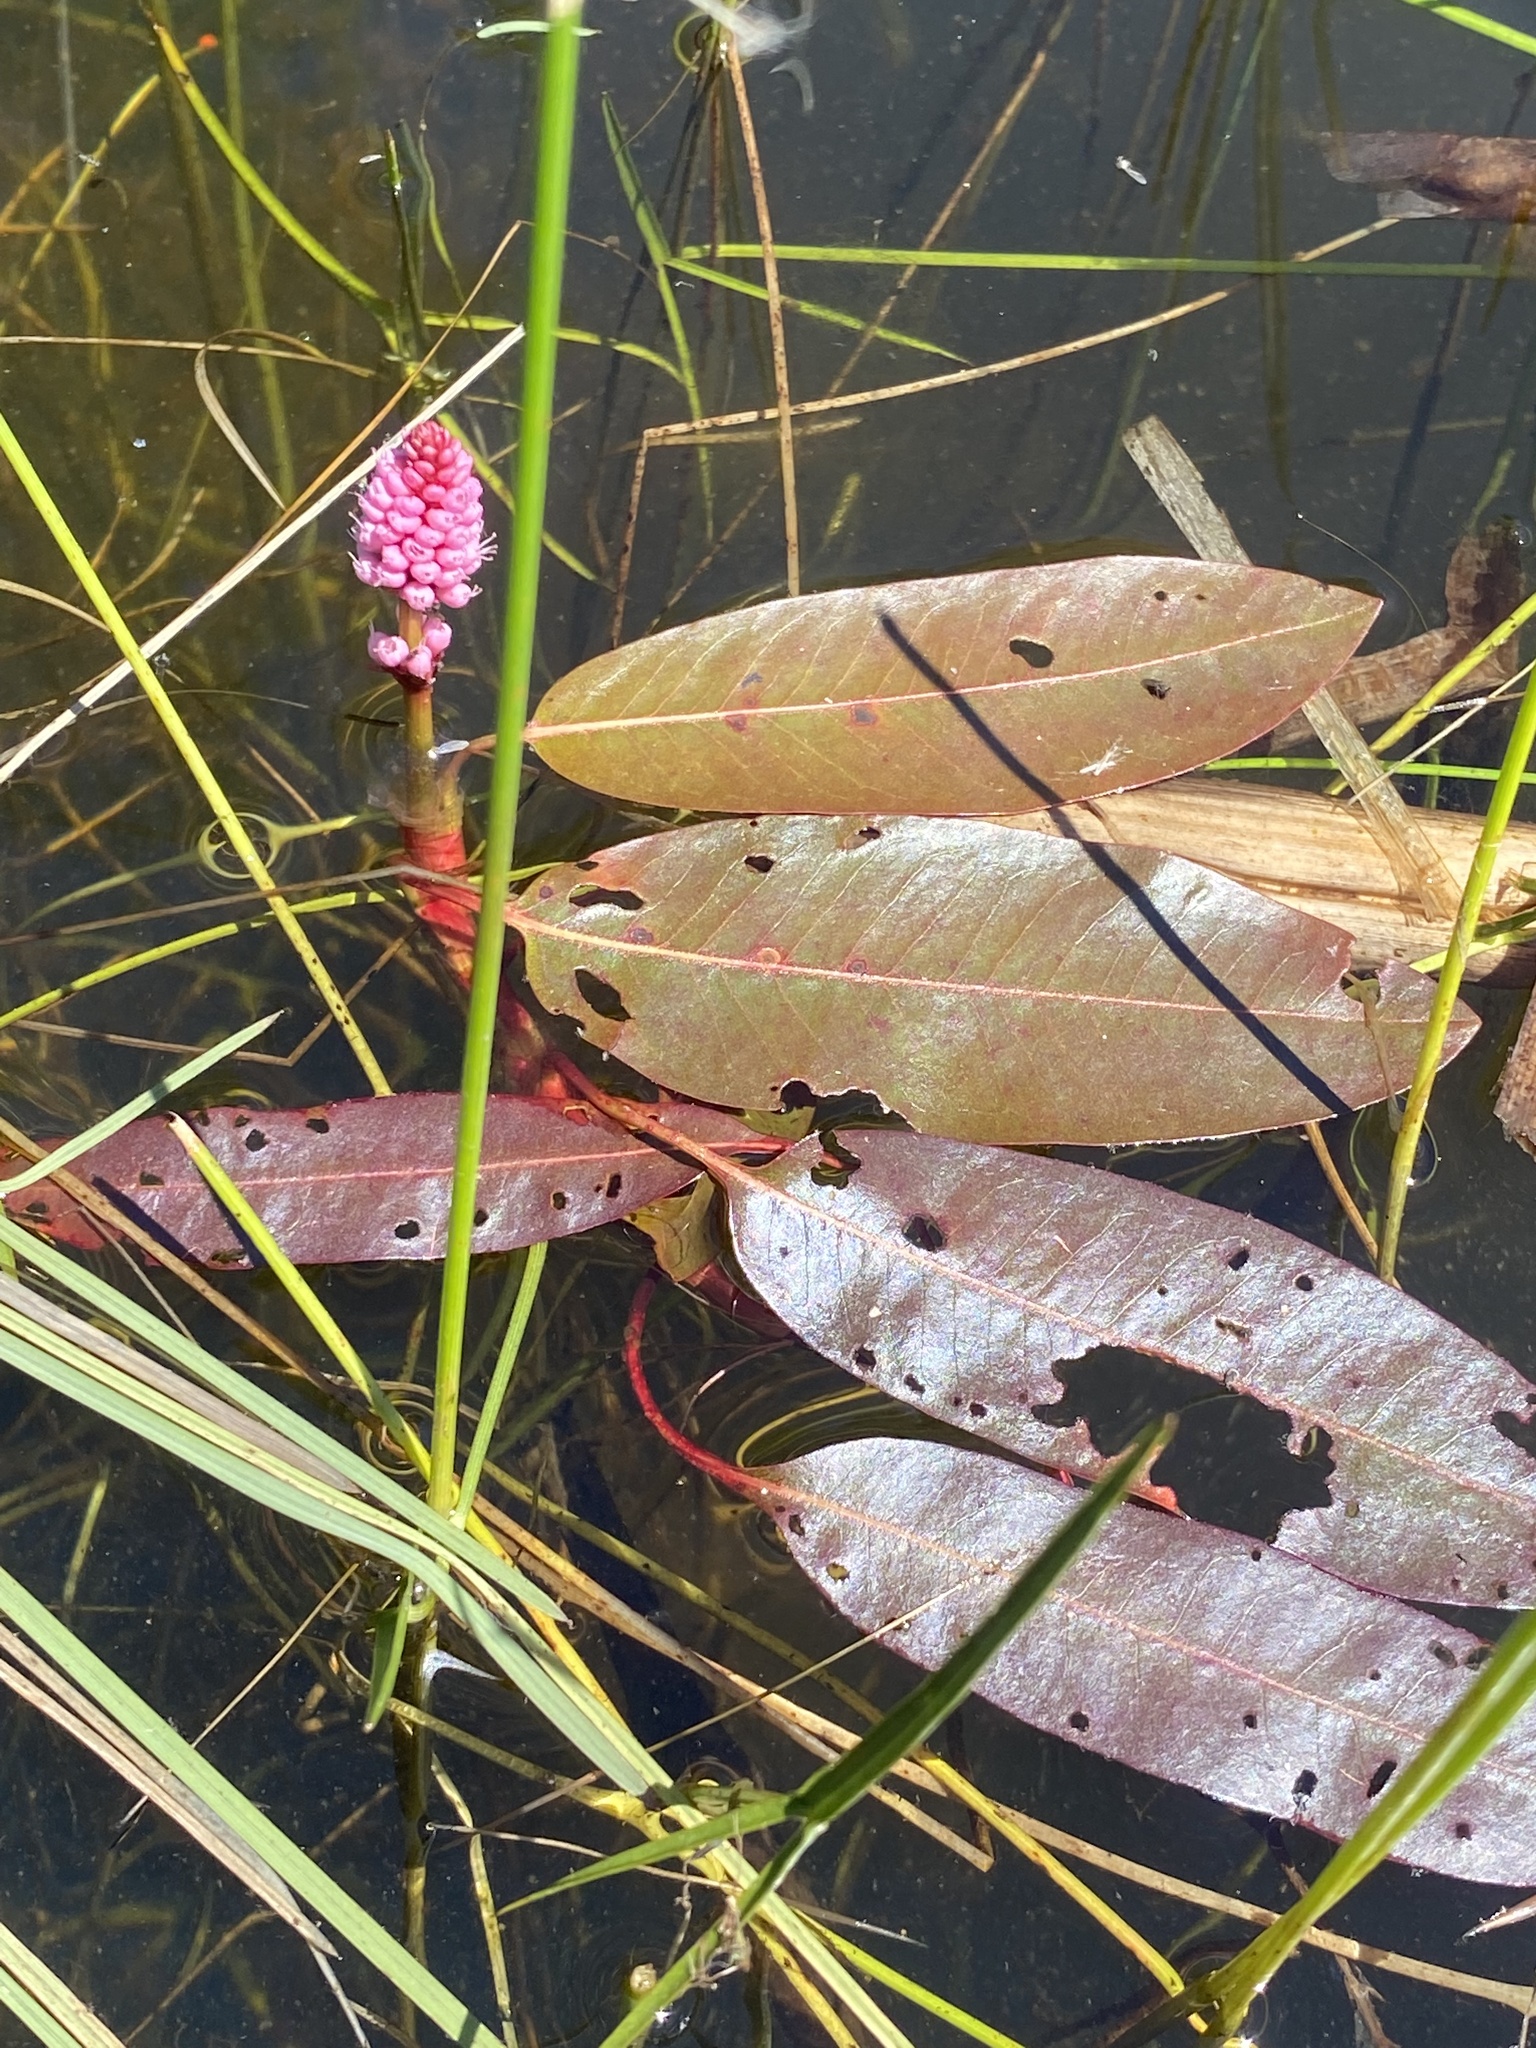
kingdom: Plantae
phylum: Tracheophyta
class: Magnoliopsida
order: Caryophyllales
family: Polygonaceae
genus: Persicaria
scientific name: Persicaria amphibia
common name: Amphibious bistort
